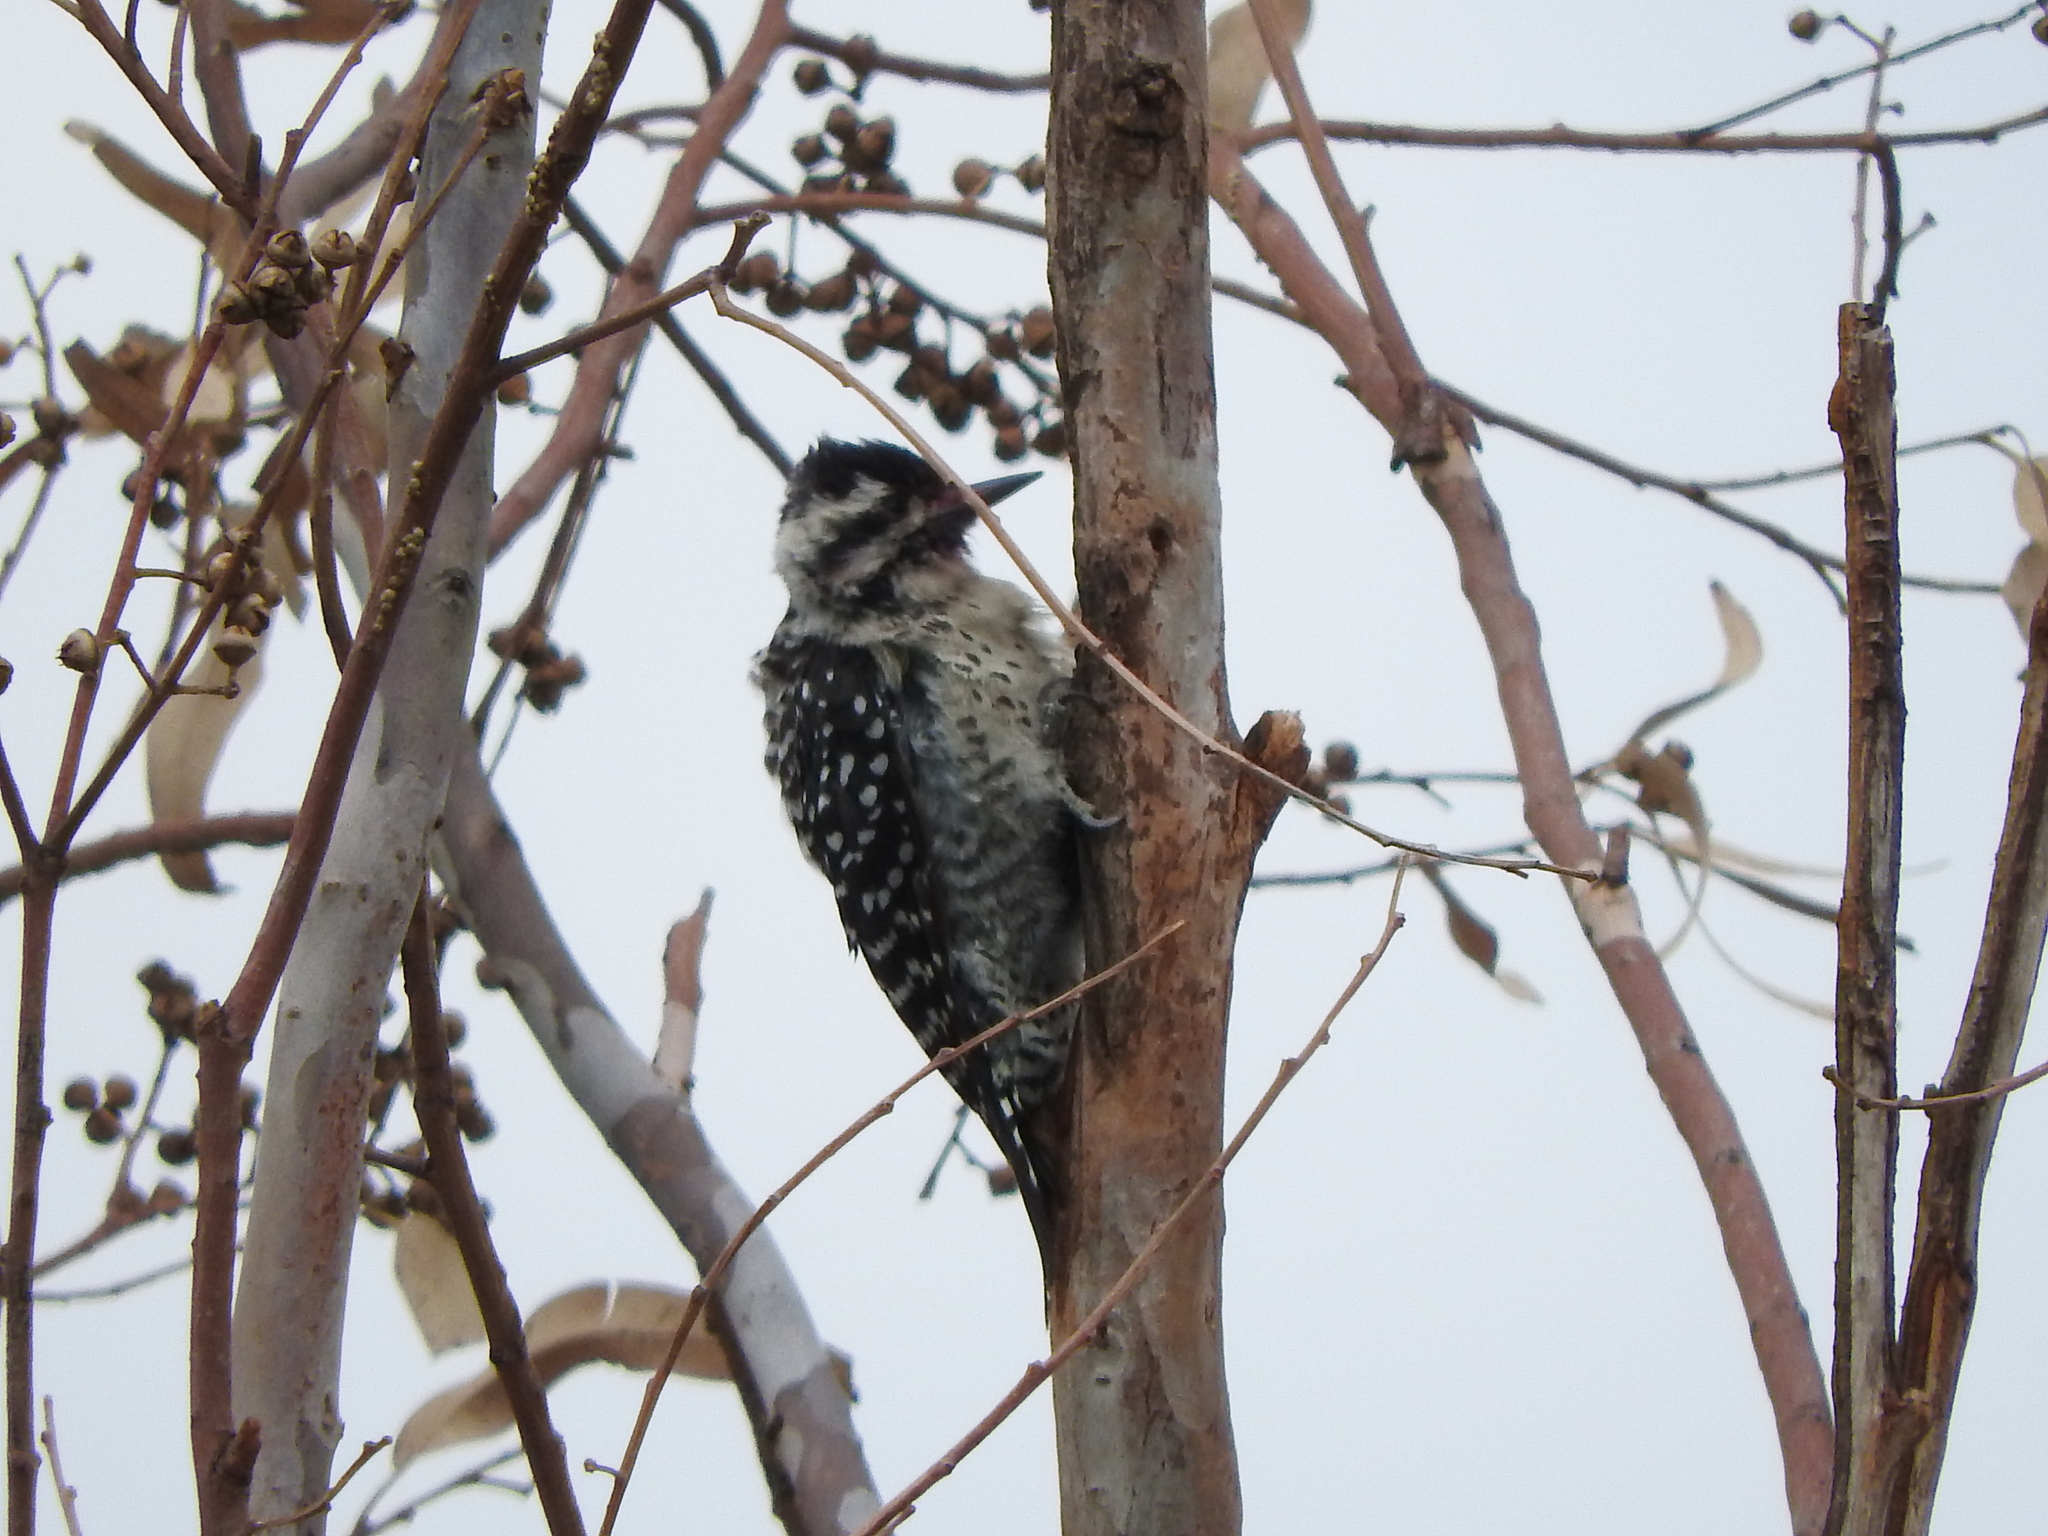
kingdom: Animalia
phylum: Chordata
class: Aves
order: Piciformes
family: Picidae
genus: Dryobates
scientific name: Dryobates scalaris
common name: Ladder-backed woodpecker
